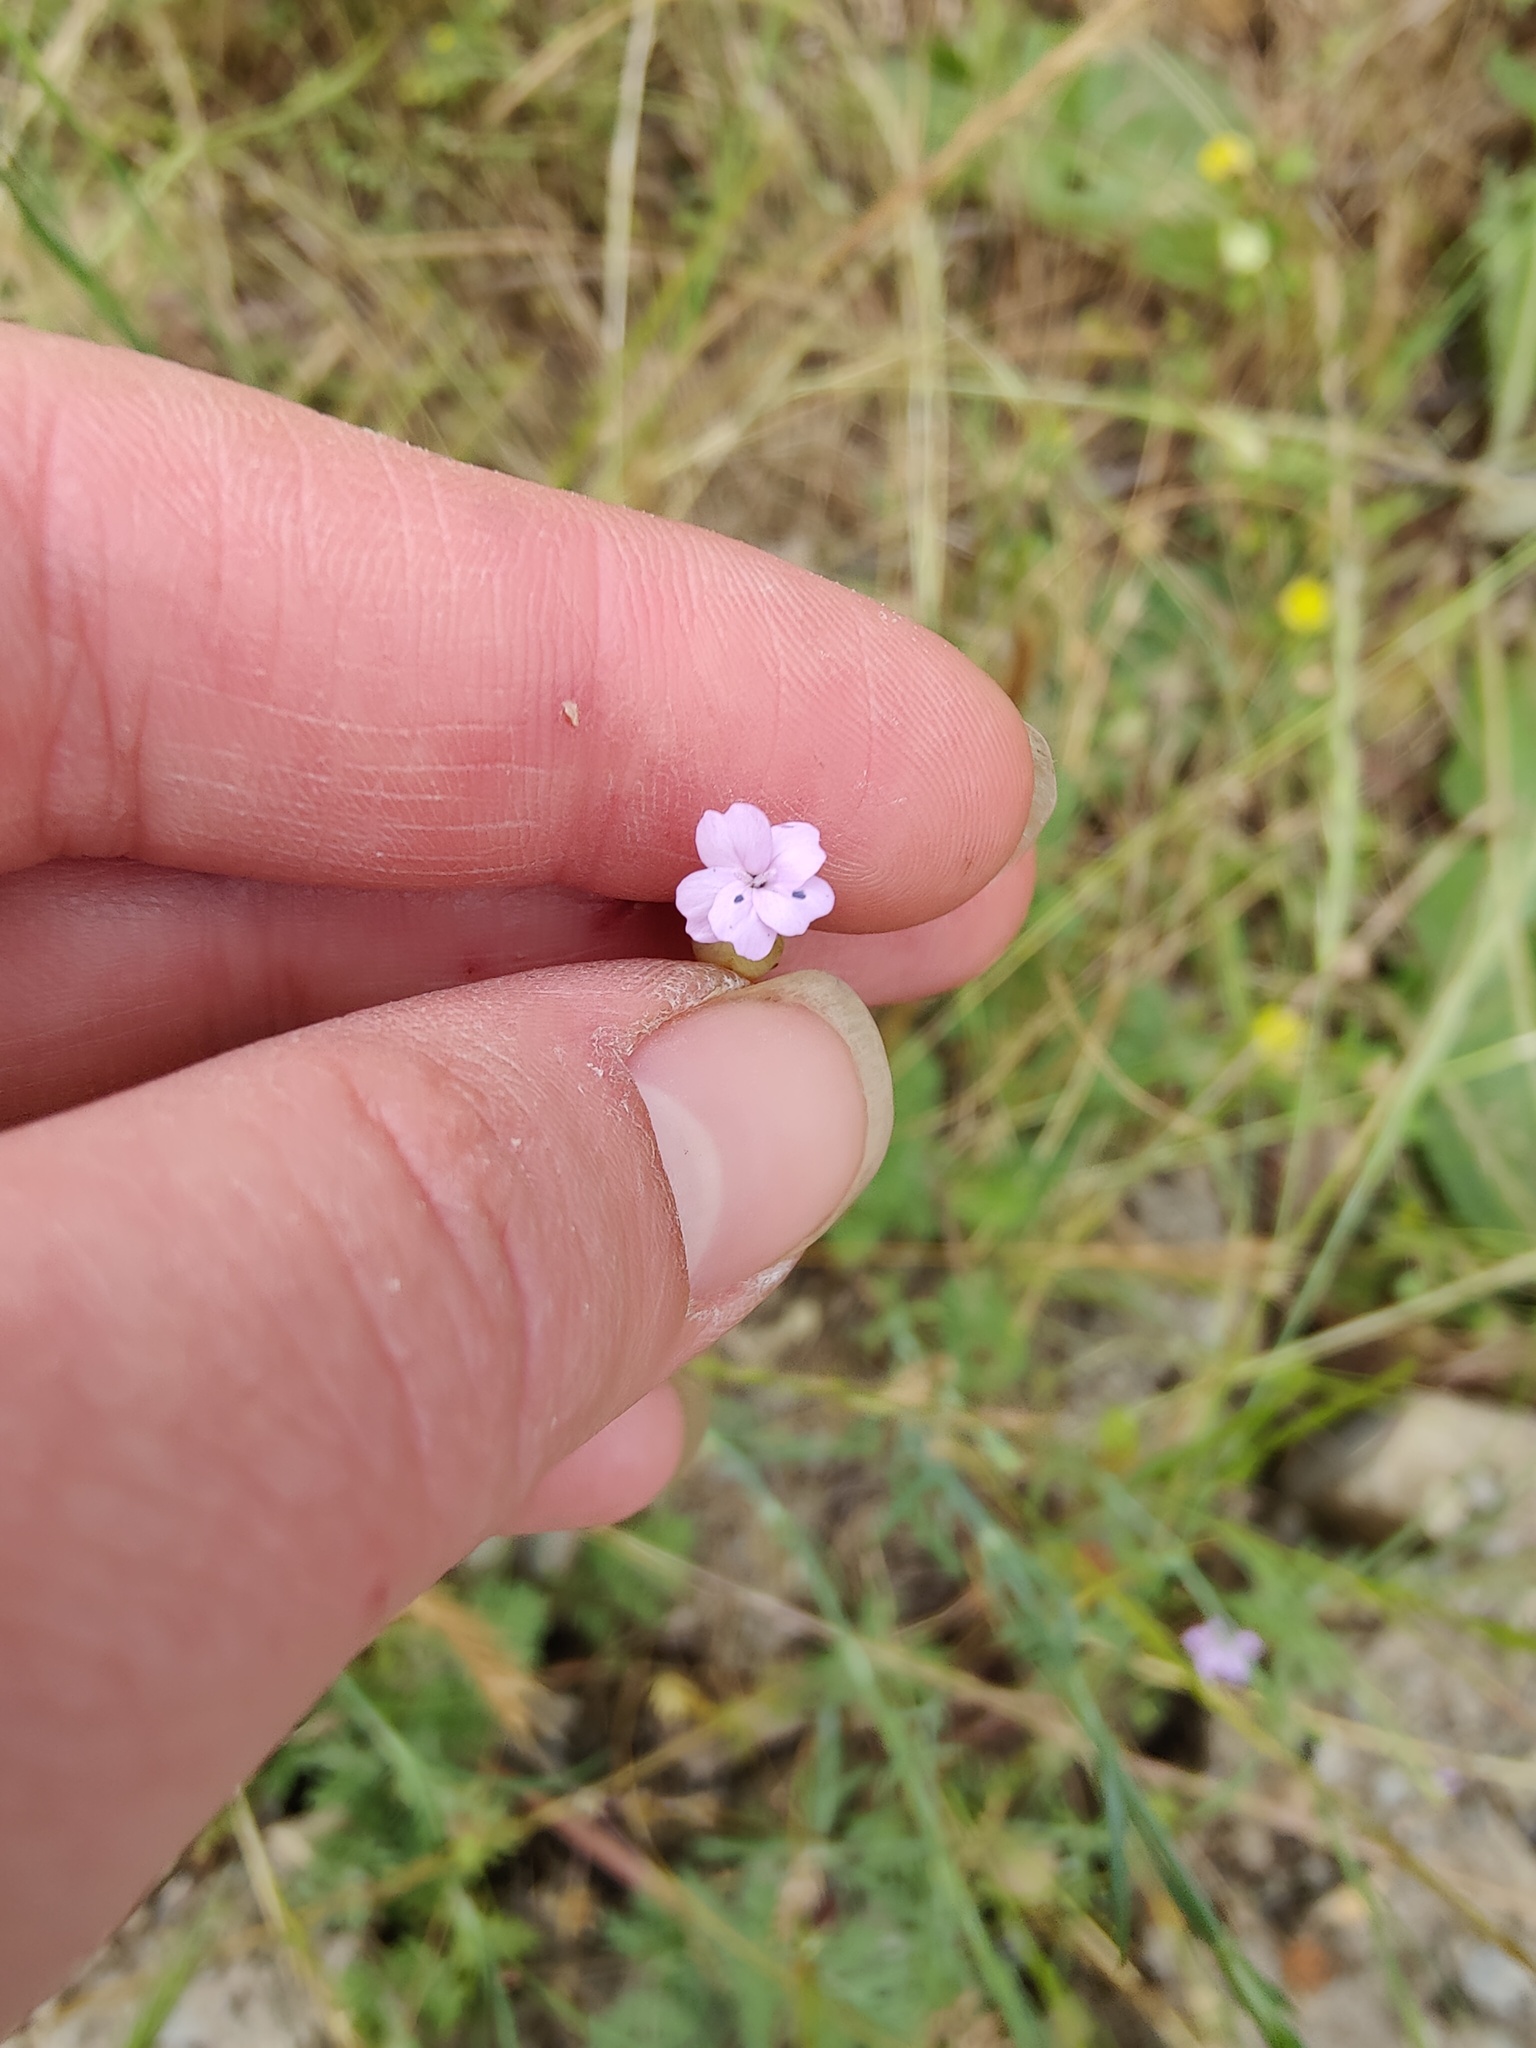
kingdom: Plantae
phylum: Tracheophyta
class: Magnoliopsida
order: Caryophyllales
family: Caryophyllaceae
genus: Petrorhagia
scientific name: Petrorhagia prolifera
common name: Proliferous pink
